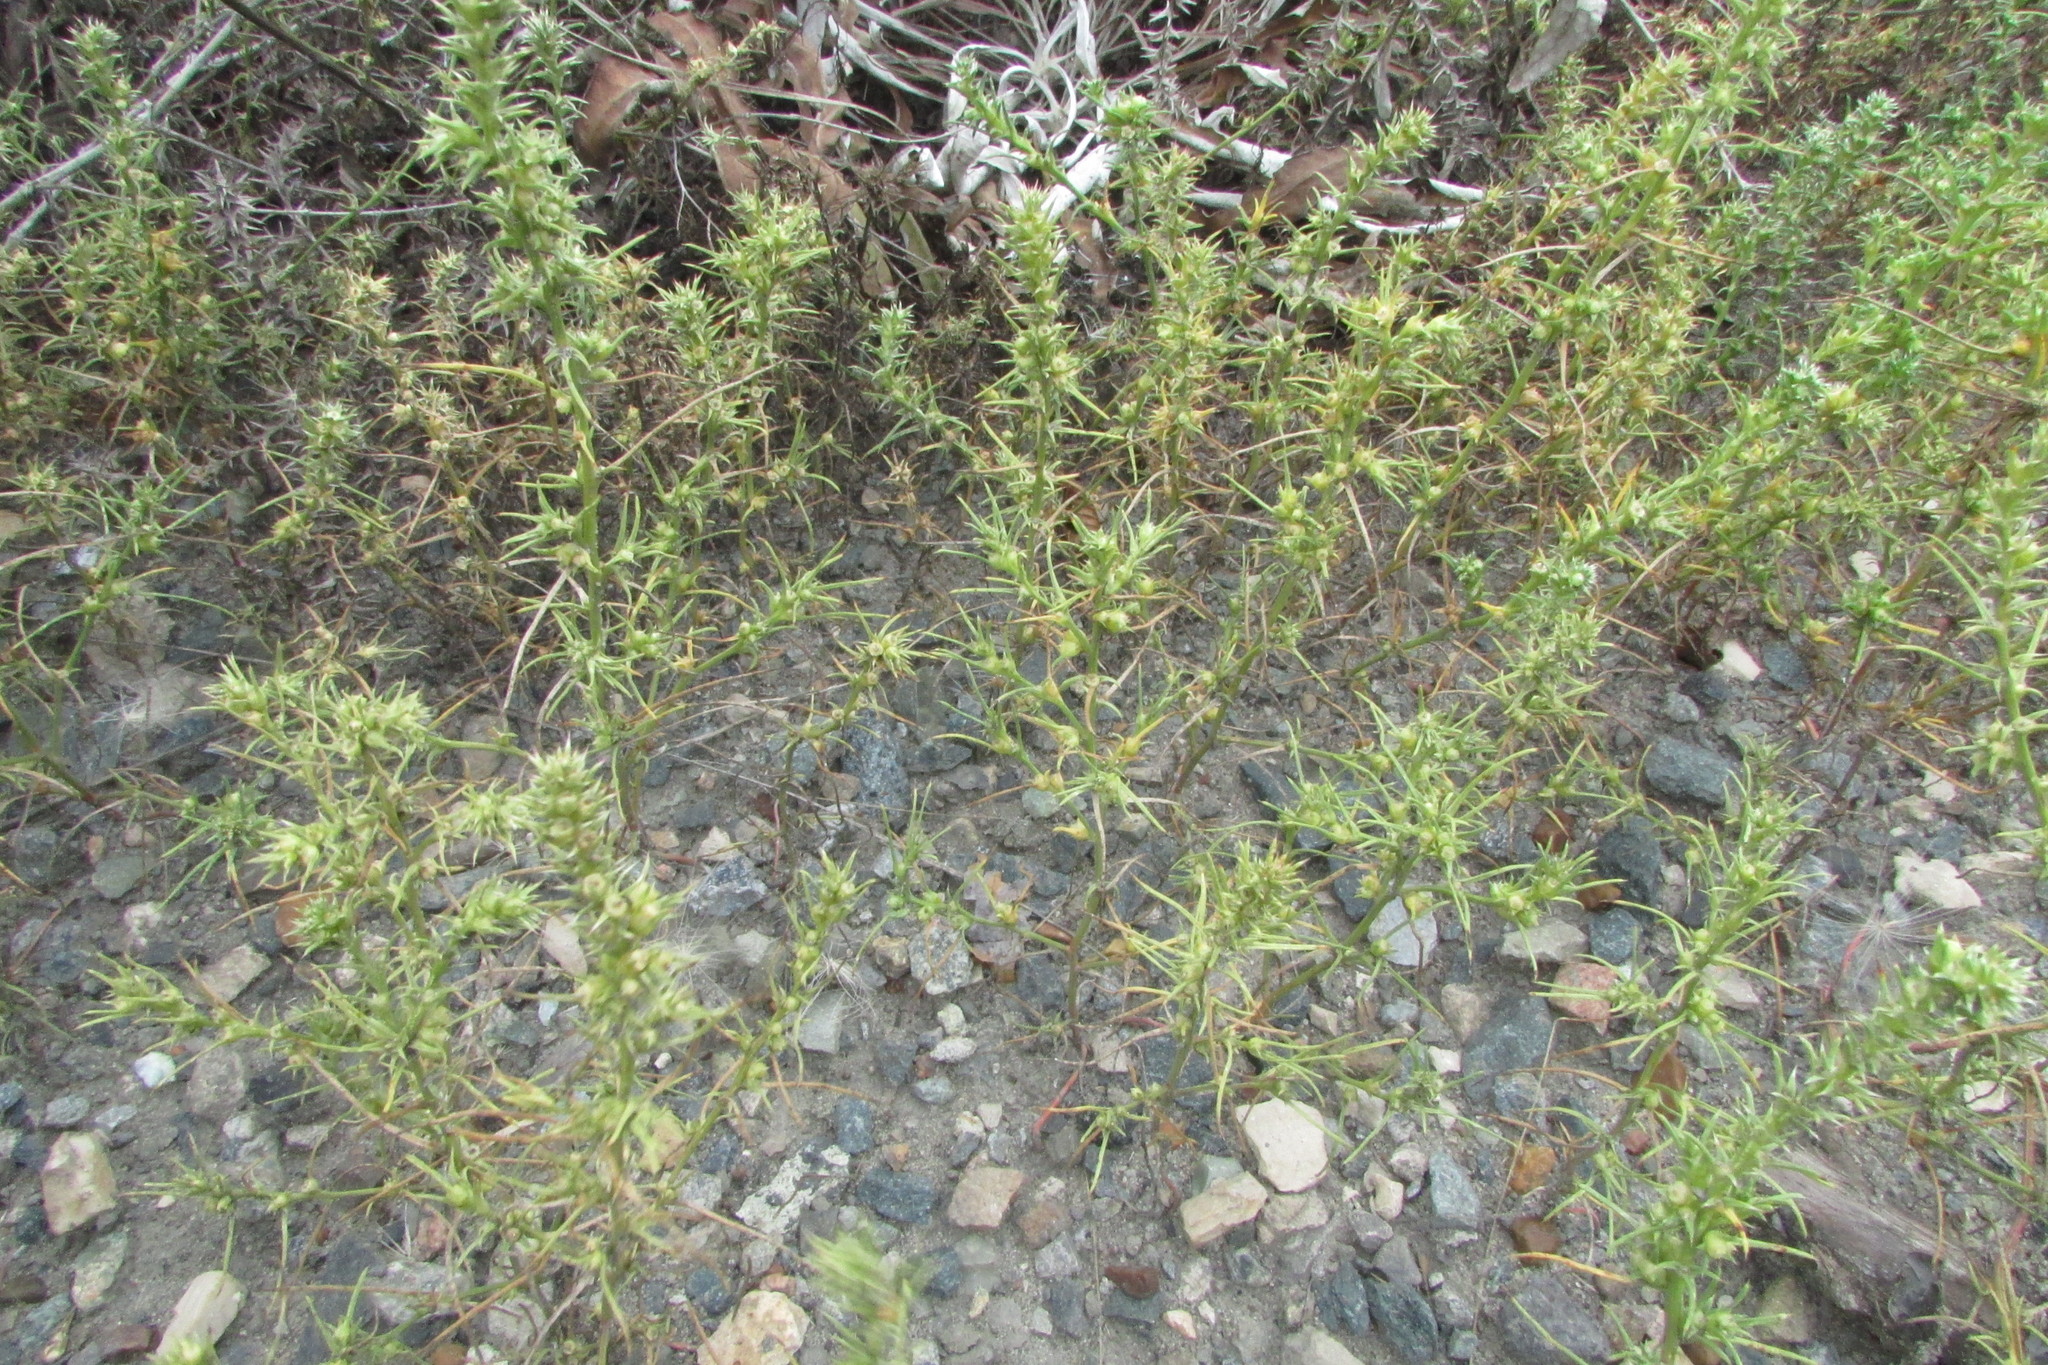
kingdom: Plantae
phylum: Tracheophyta
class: Magnoliopsida
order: Caryophyllales
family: Amaranthaceae
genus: Salsola
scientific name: Salsola tragus
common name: Prickly russian thistle
